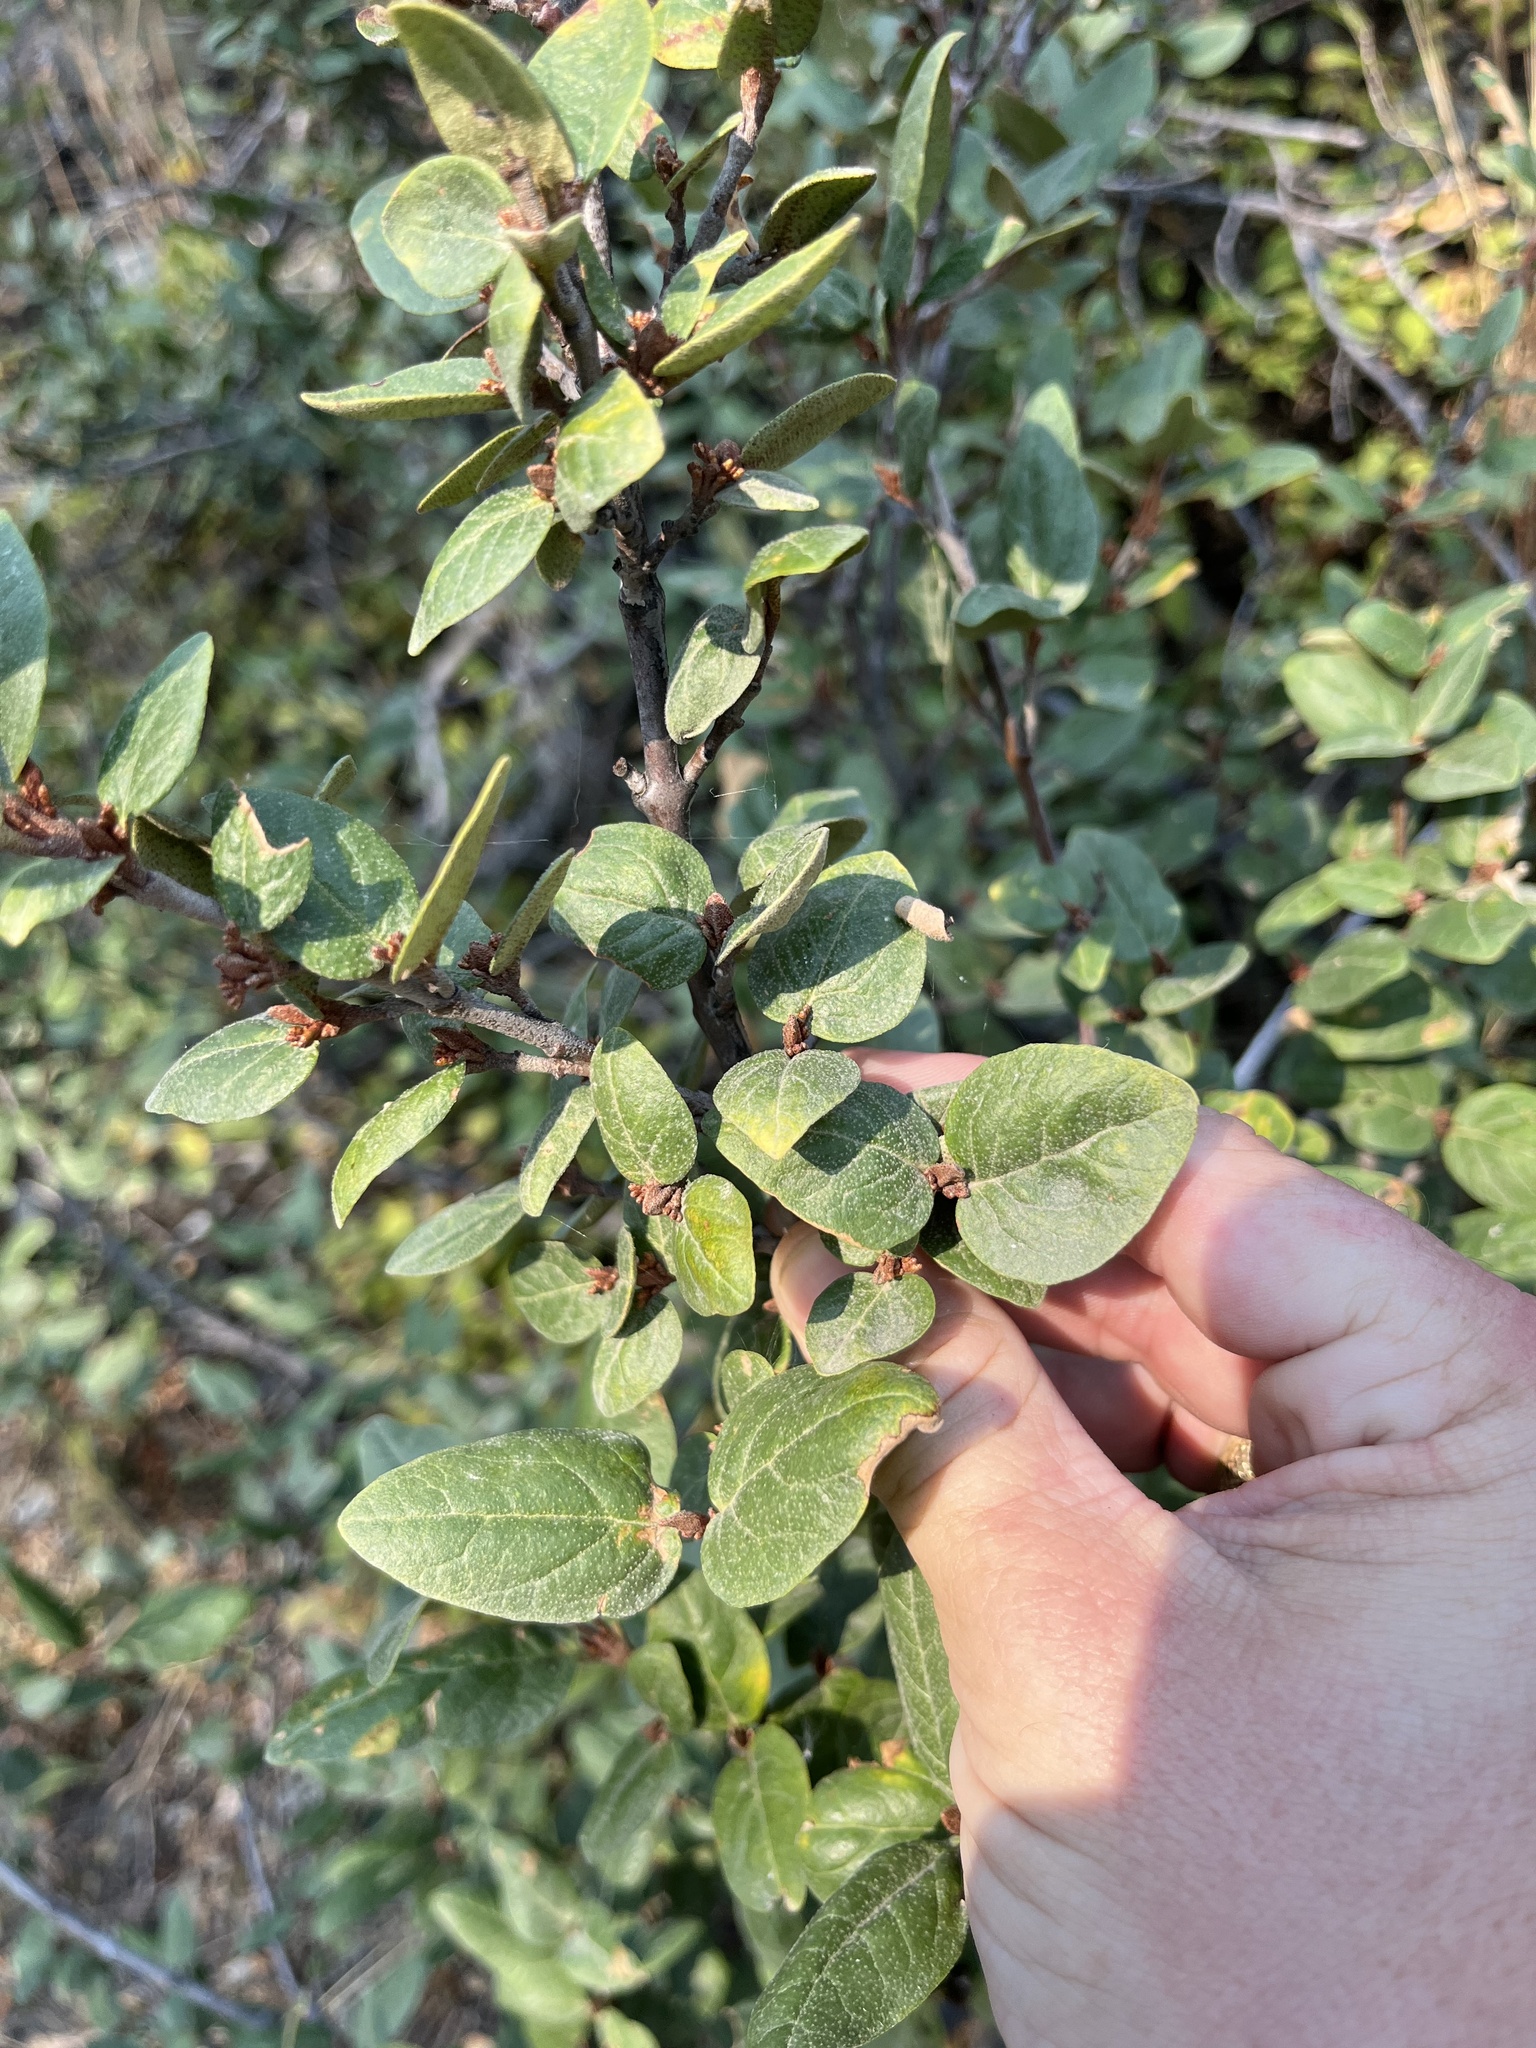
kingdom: Plantae
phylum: Tracheophyta
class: Magnoliopsida
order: Rosales
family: Elaeagnaceae
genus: Shepherdia
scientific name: Shepherdia canadensis
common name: Soapberry
